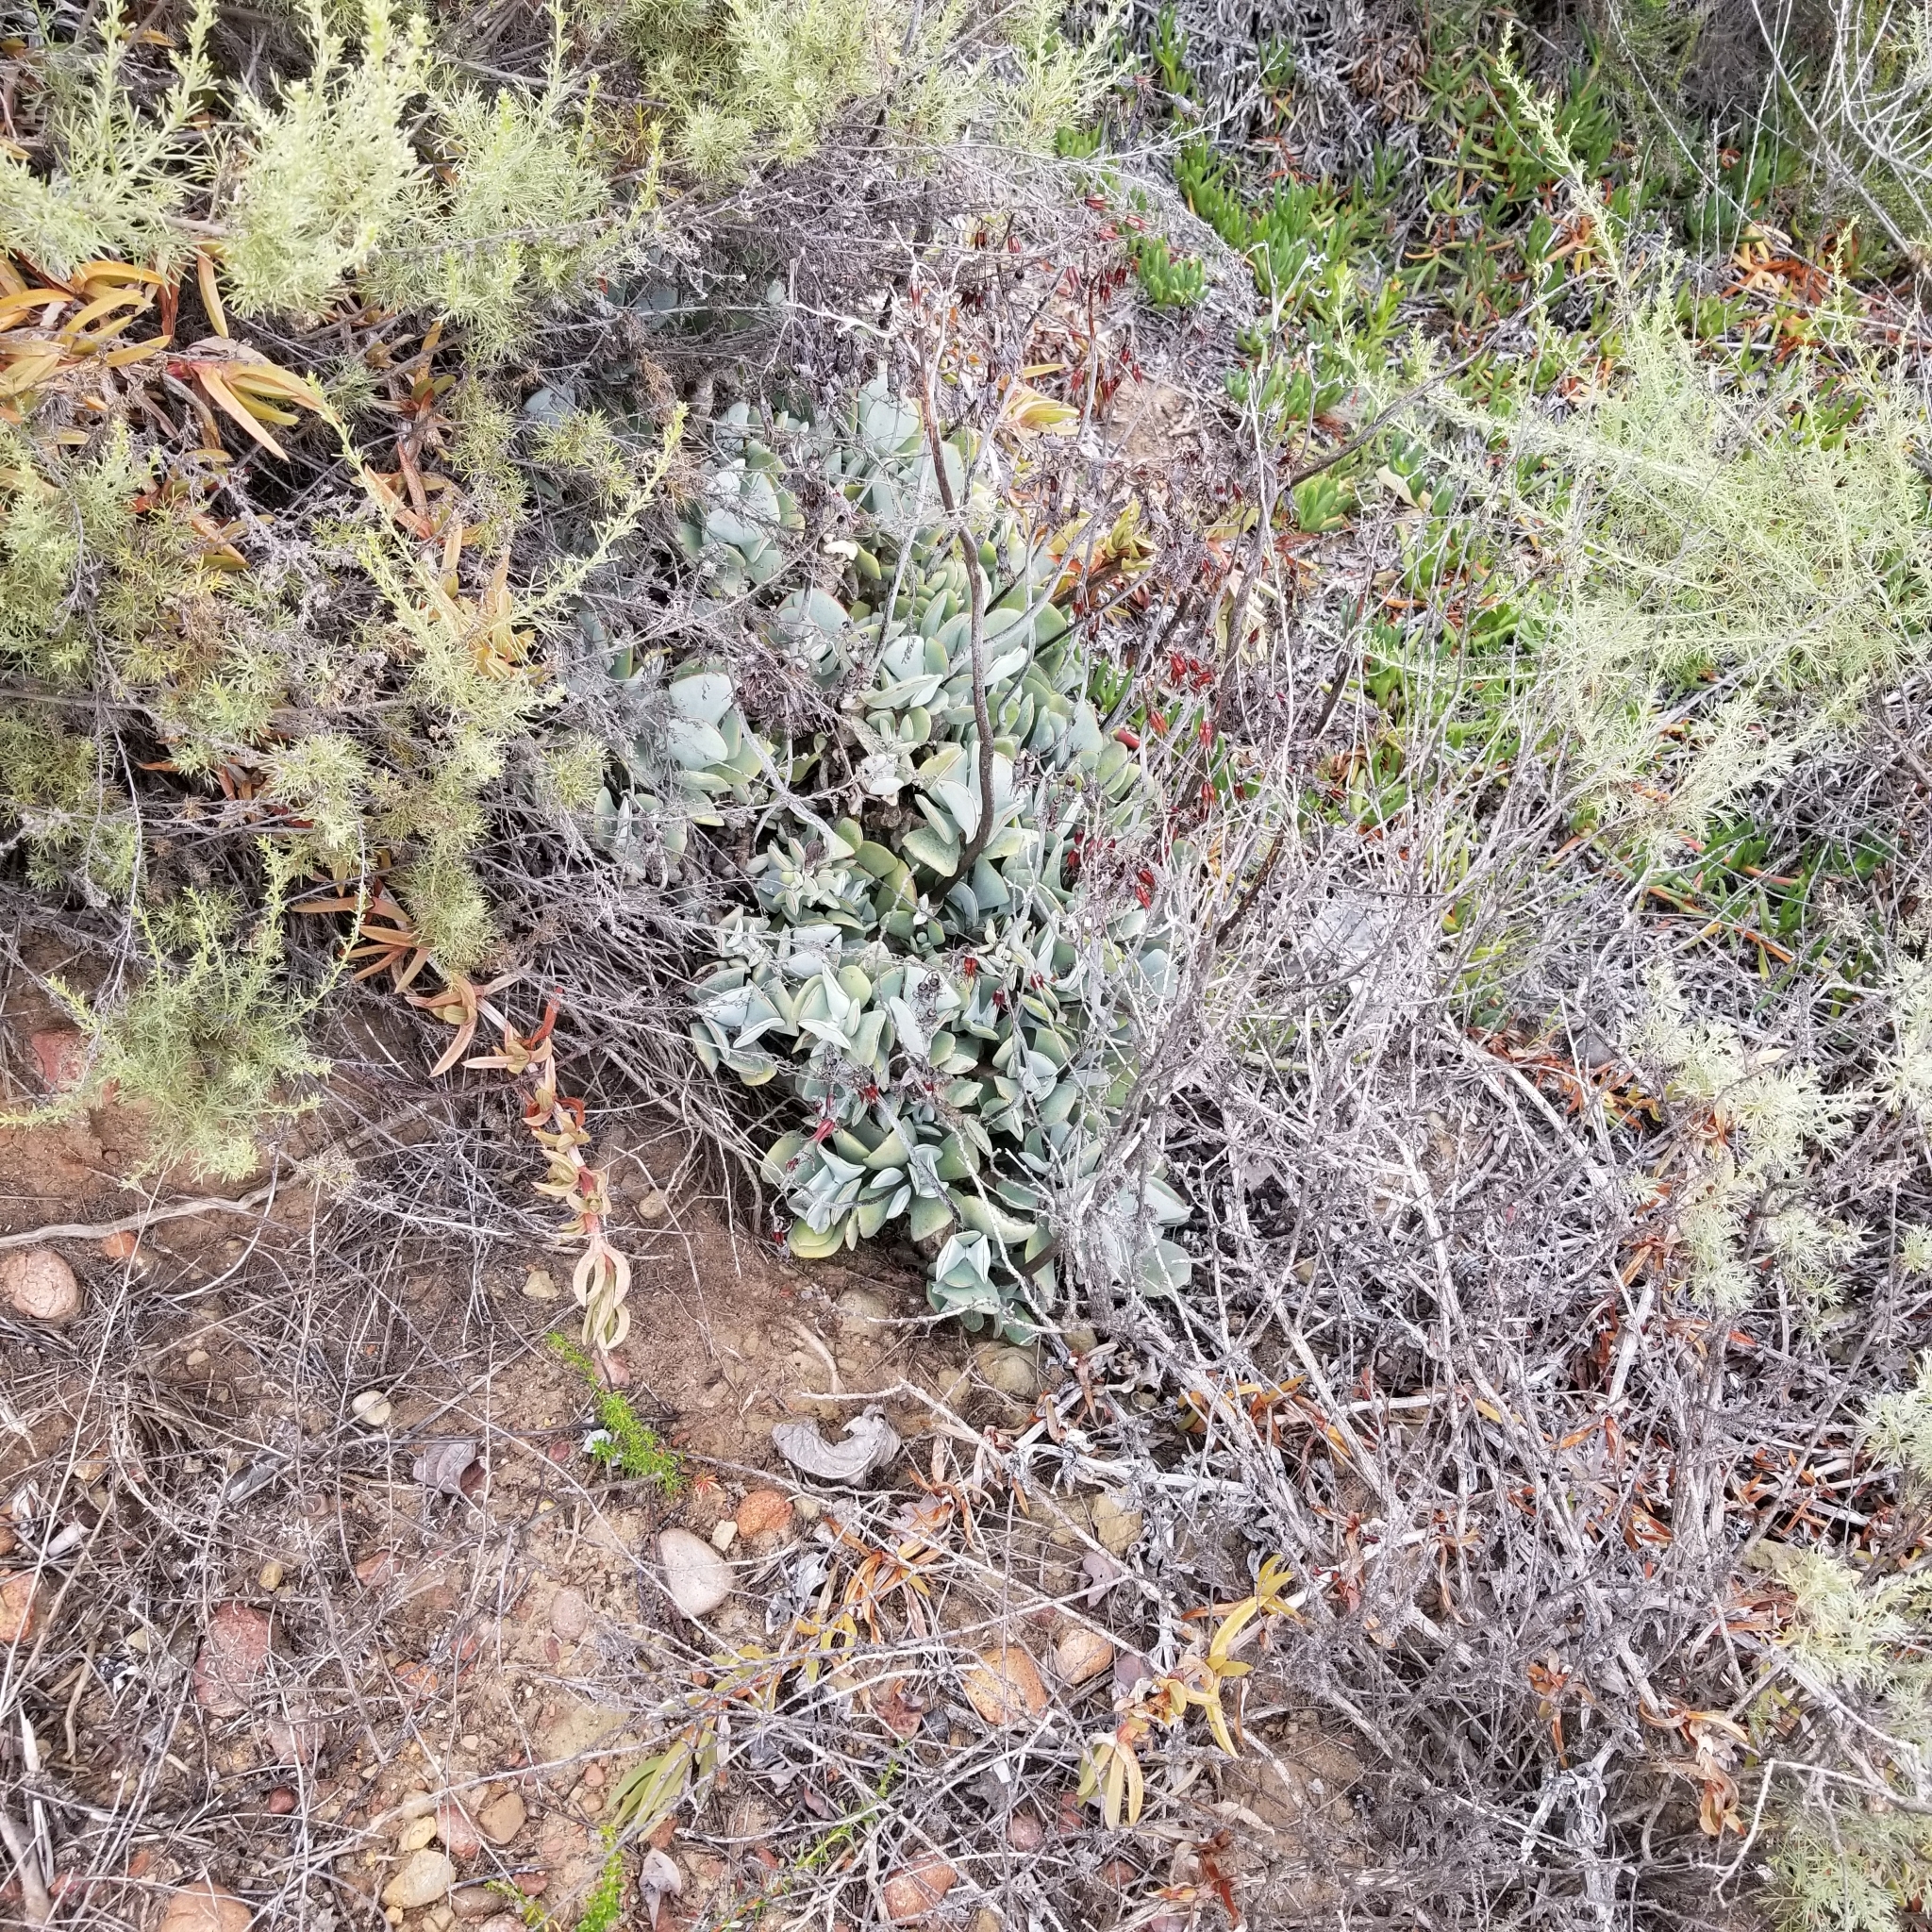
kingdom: Plantae
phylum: Tracheophyta
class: Magnoliopsida
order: Saxifragales
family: Crassulaceae
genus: Cotyledon
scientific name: Cotyledon orbiculata
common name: Pig's ear
